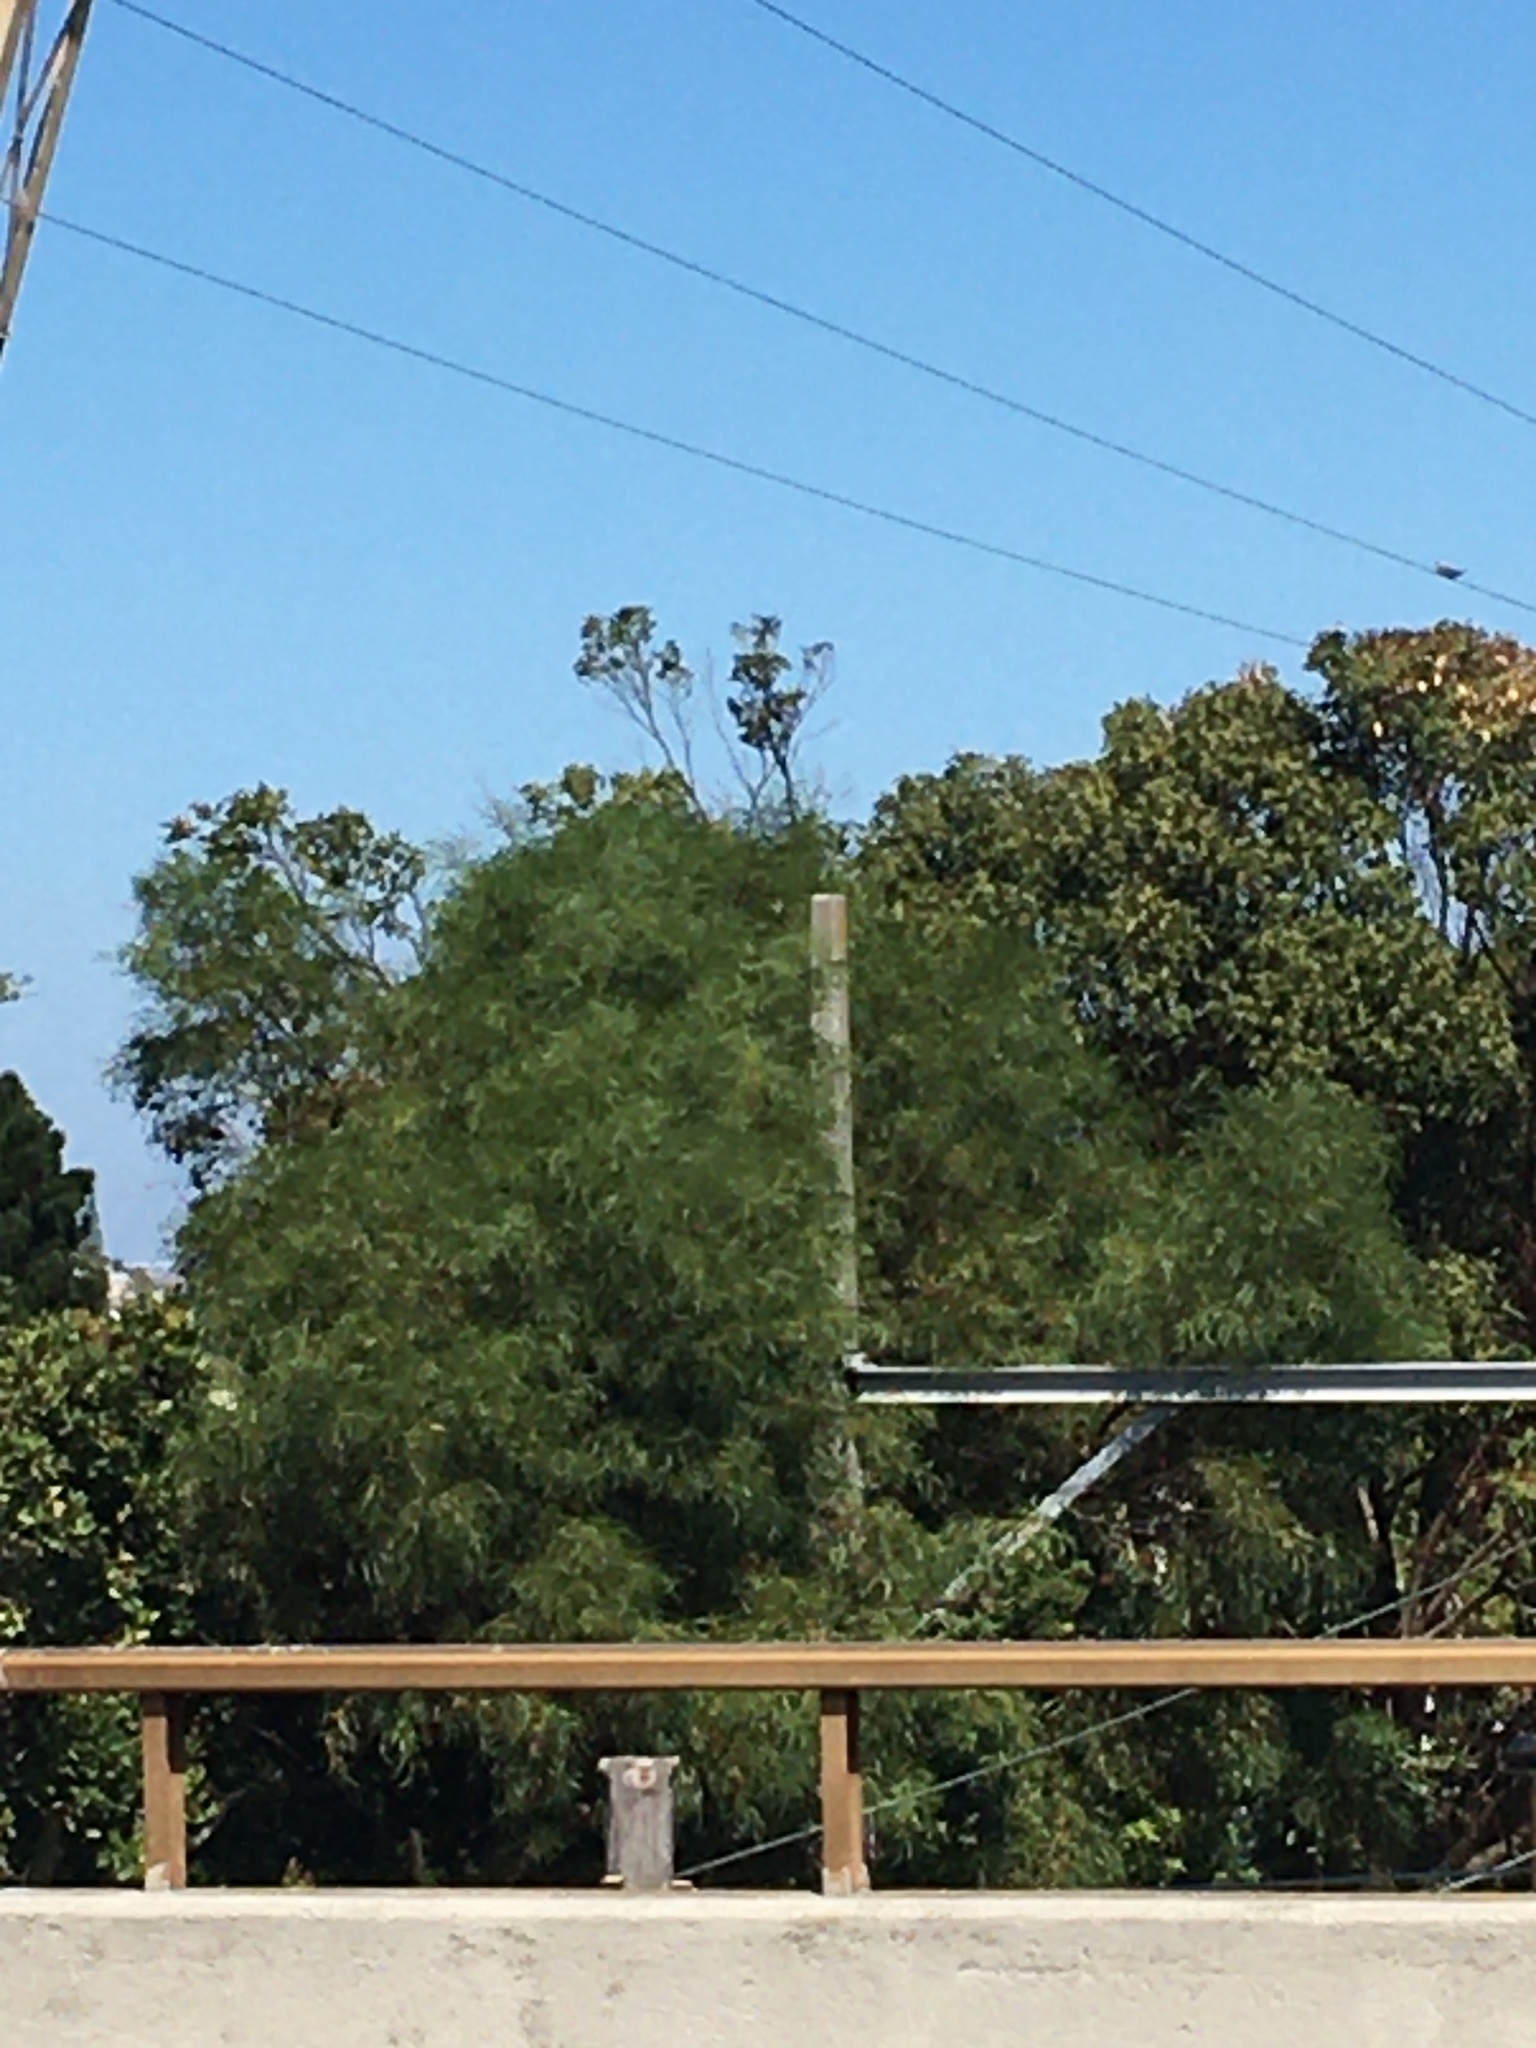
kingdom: Plantae
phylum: Tracheophyta
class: Magnoliopsida
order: Fabales
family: Fabaceae
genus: Acacia
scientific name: Acacia saligna
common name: Orange wattle
